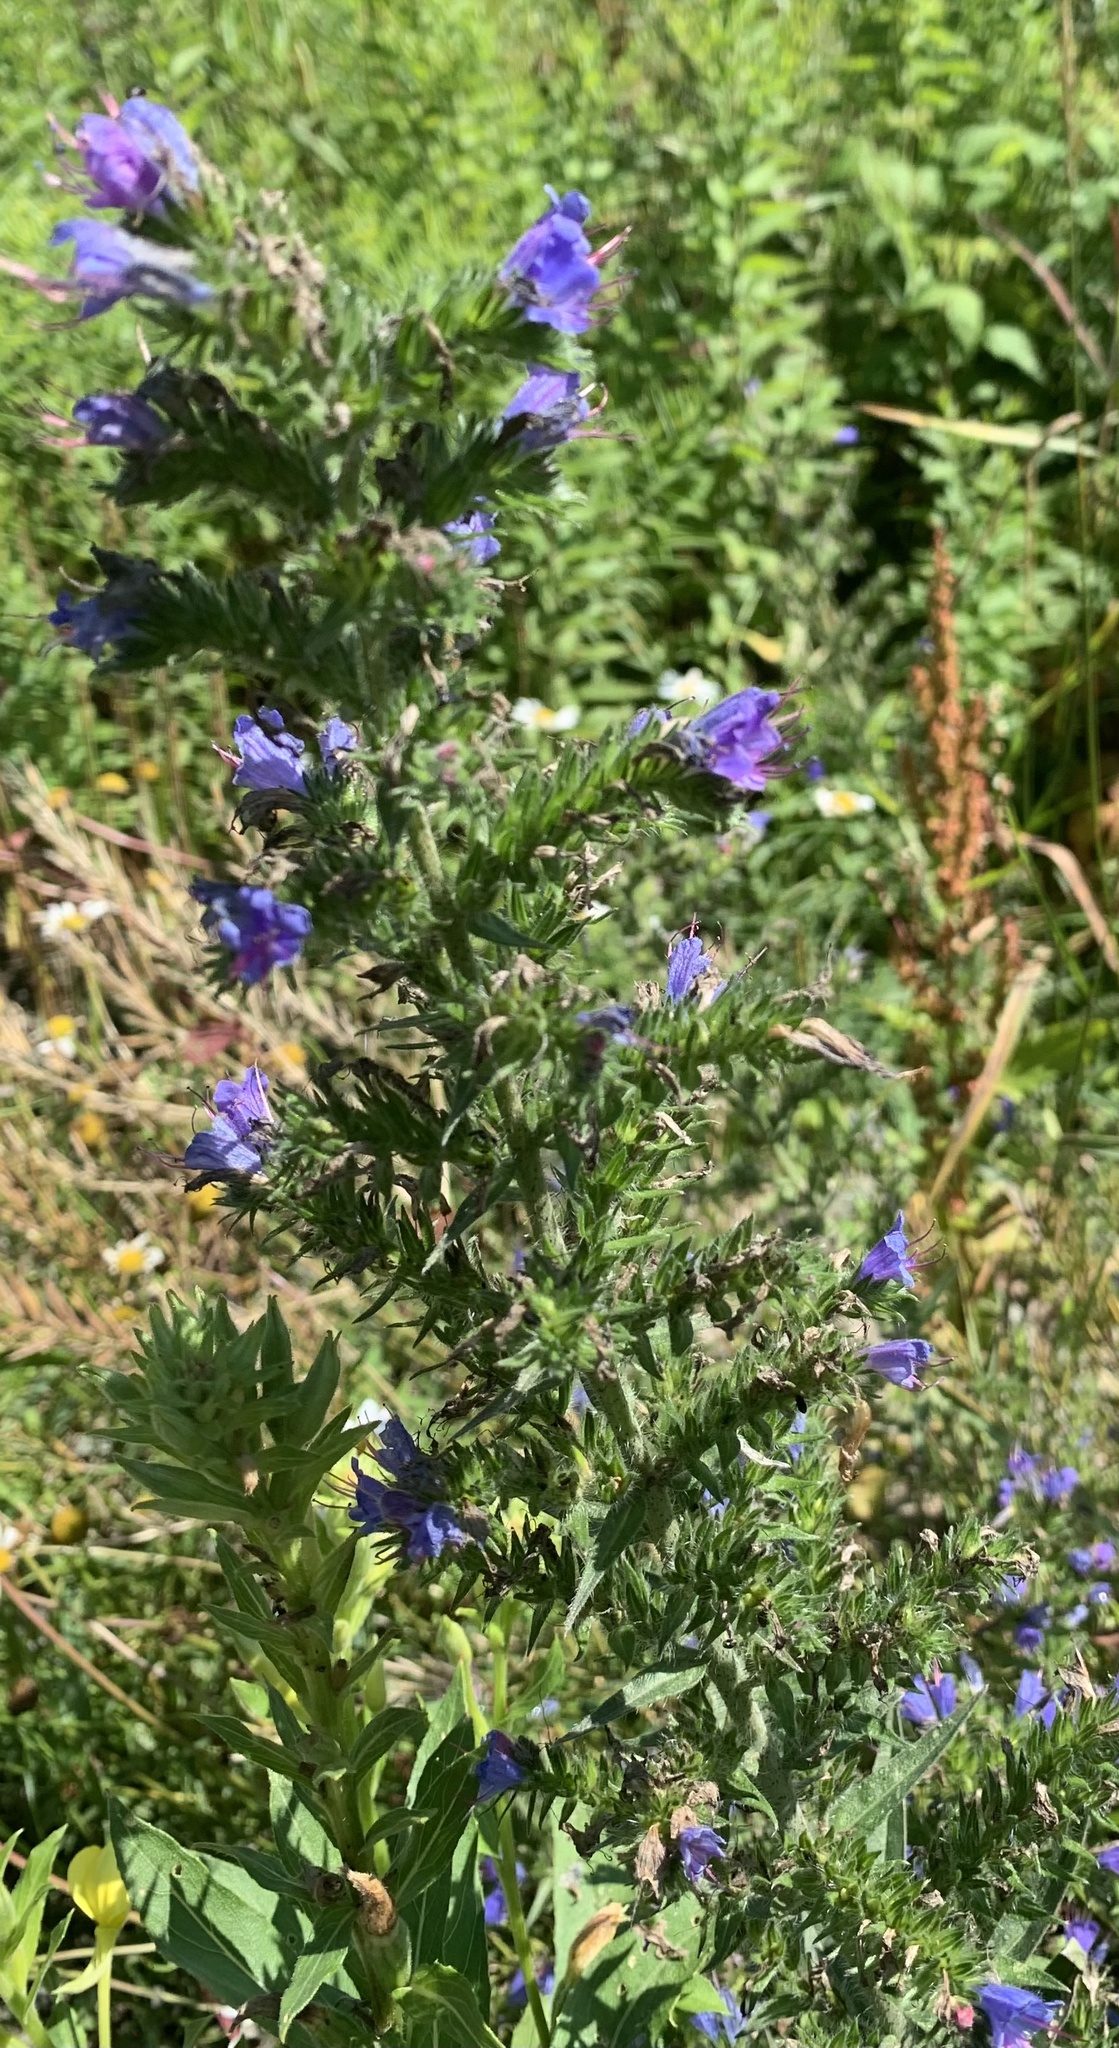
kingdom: Plantae
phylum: Tracheophyta
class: Magnoliopsida
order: Boraginales
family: Boraginaceae
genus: Echium
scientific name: Echium vulgare
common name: Common viper's bugloss
